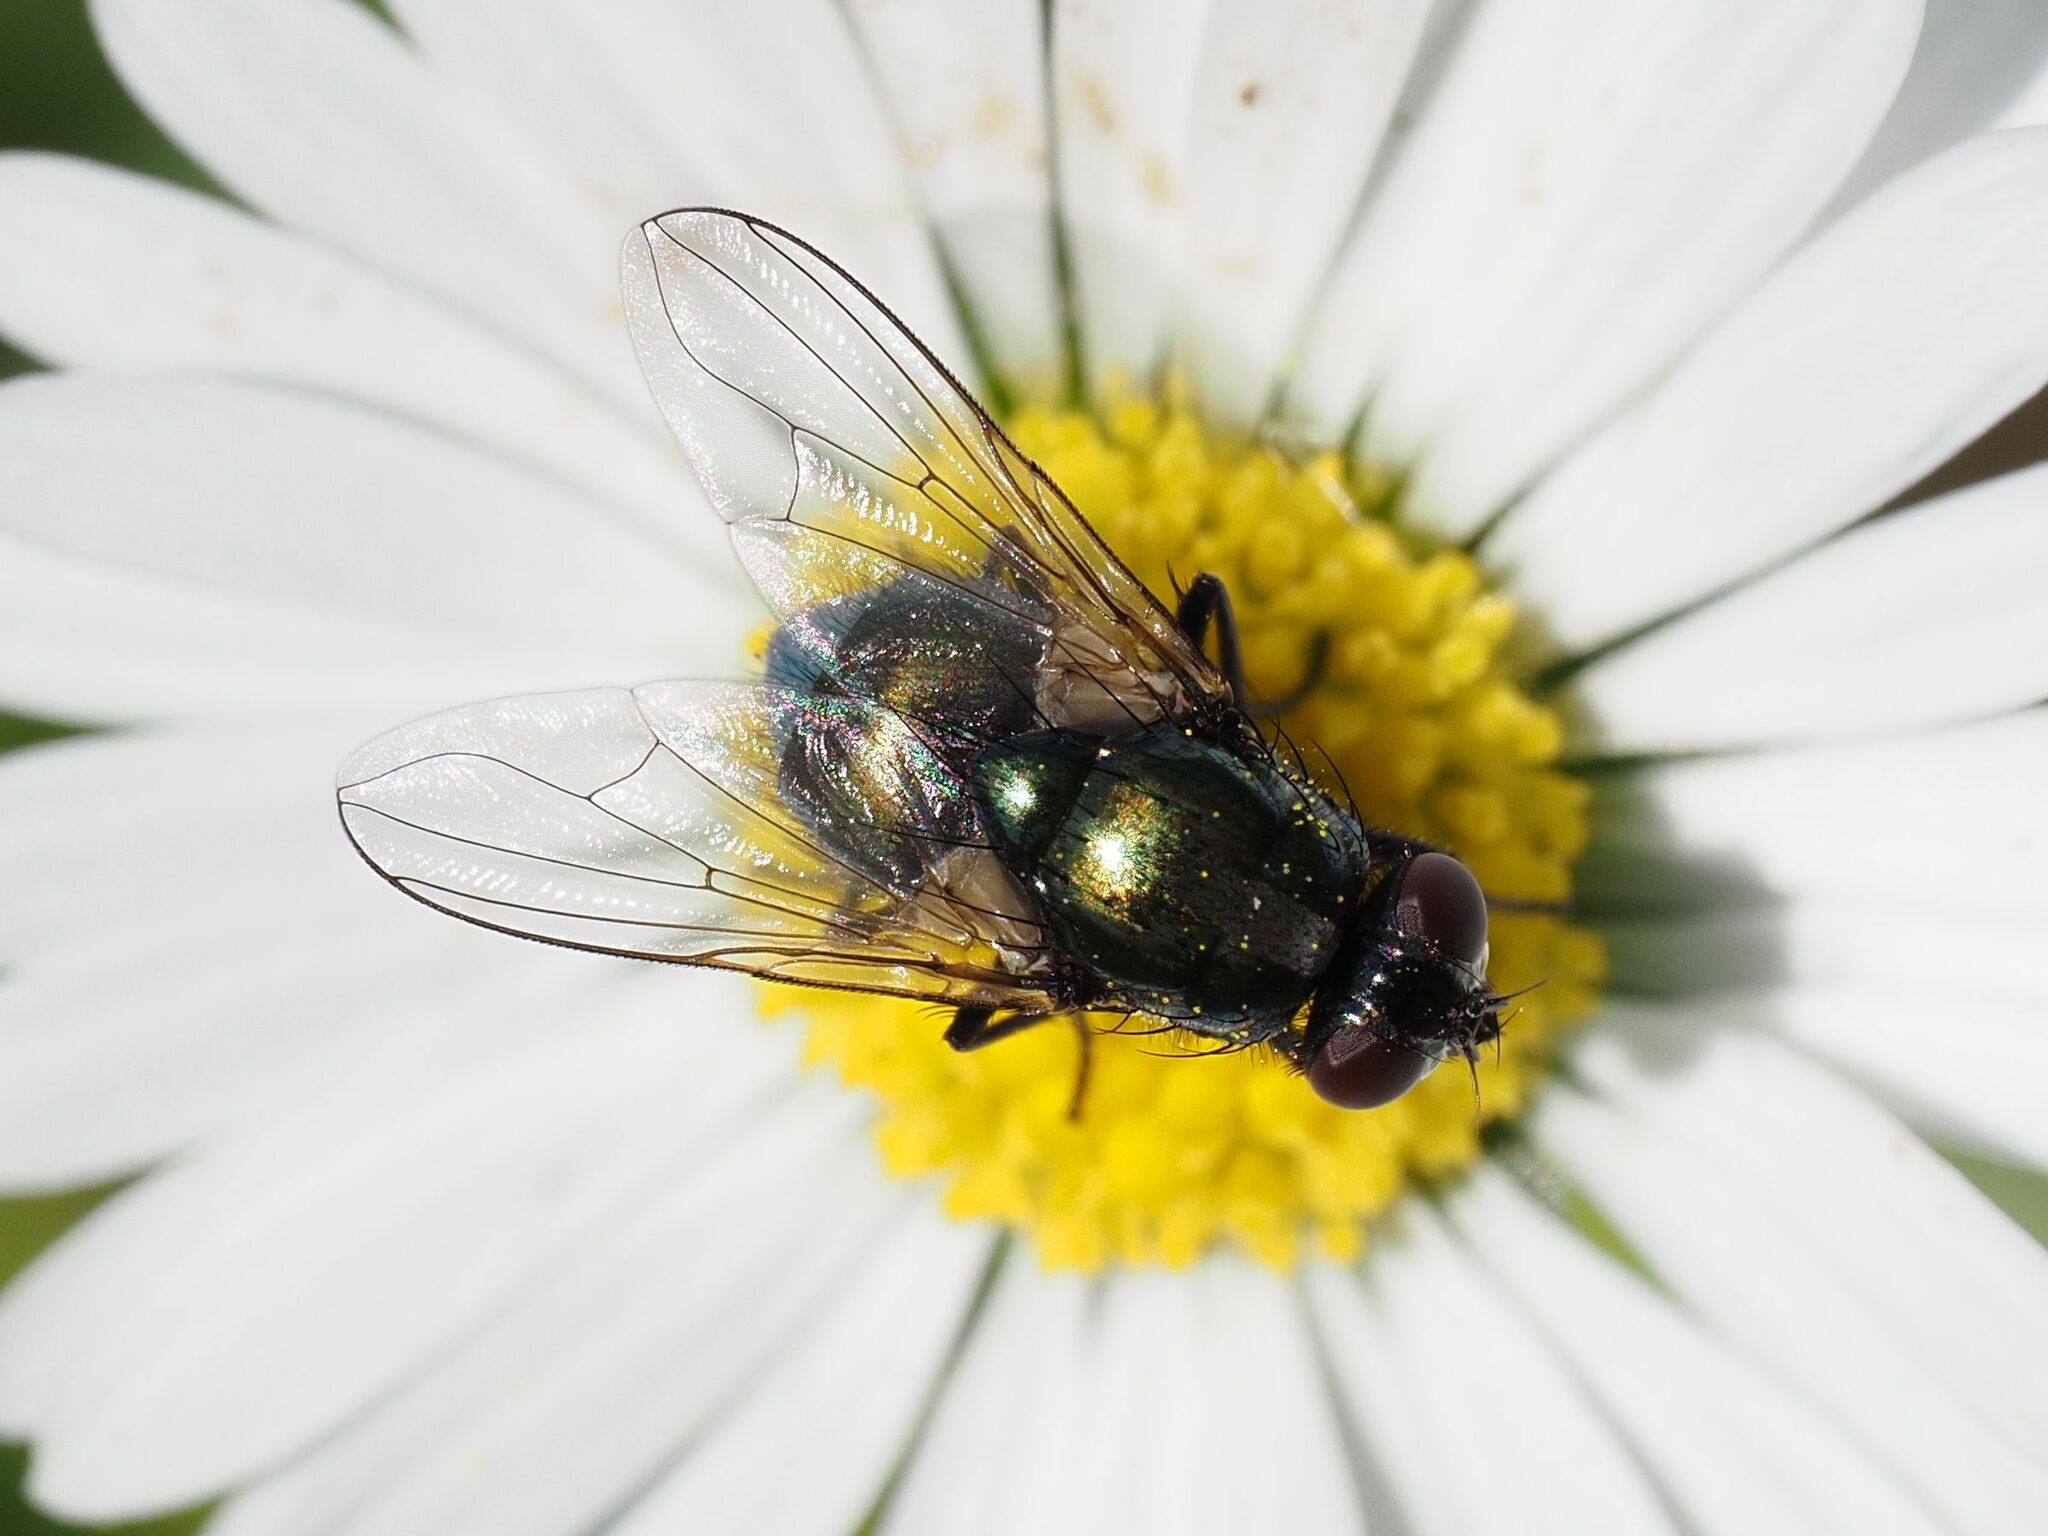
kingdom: Animalia
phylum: Arthropoda
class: Insecta
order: Diptera
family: Muscidae
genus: Pyrellia
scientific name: Pyrellia rapax
